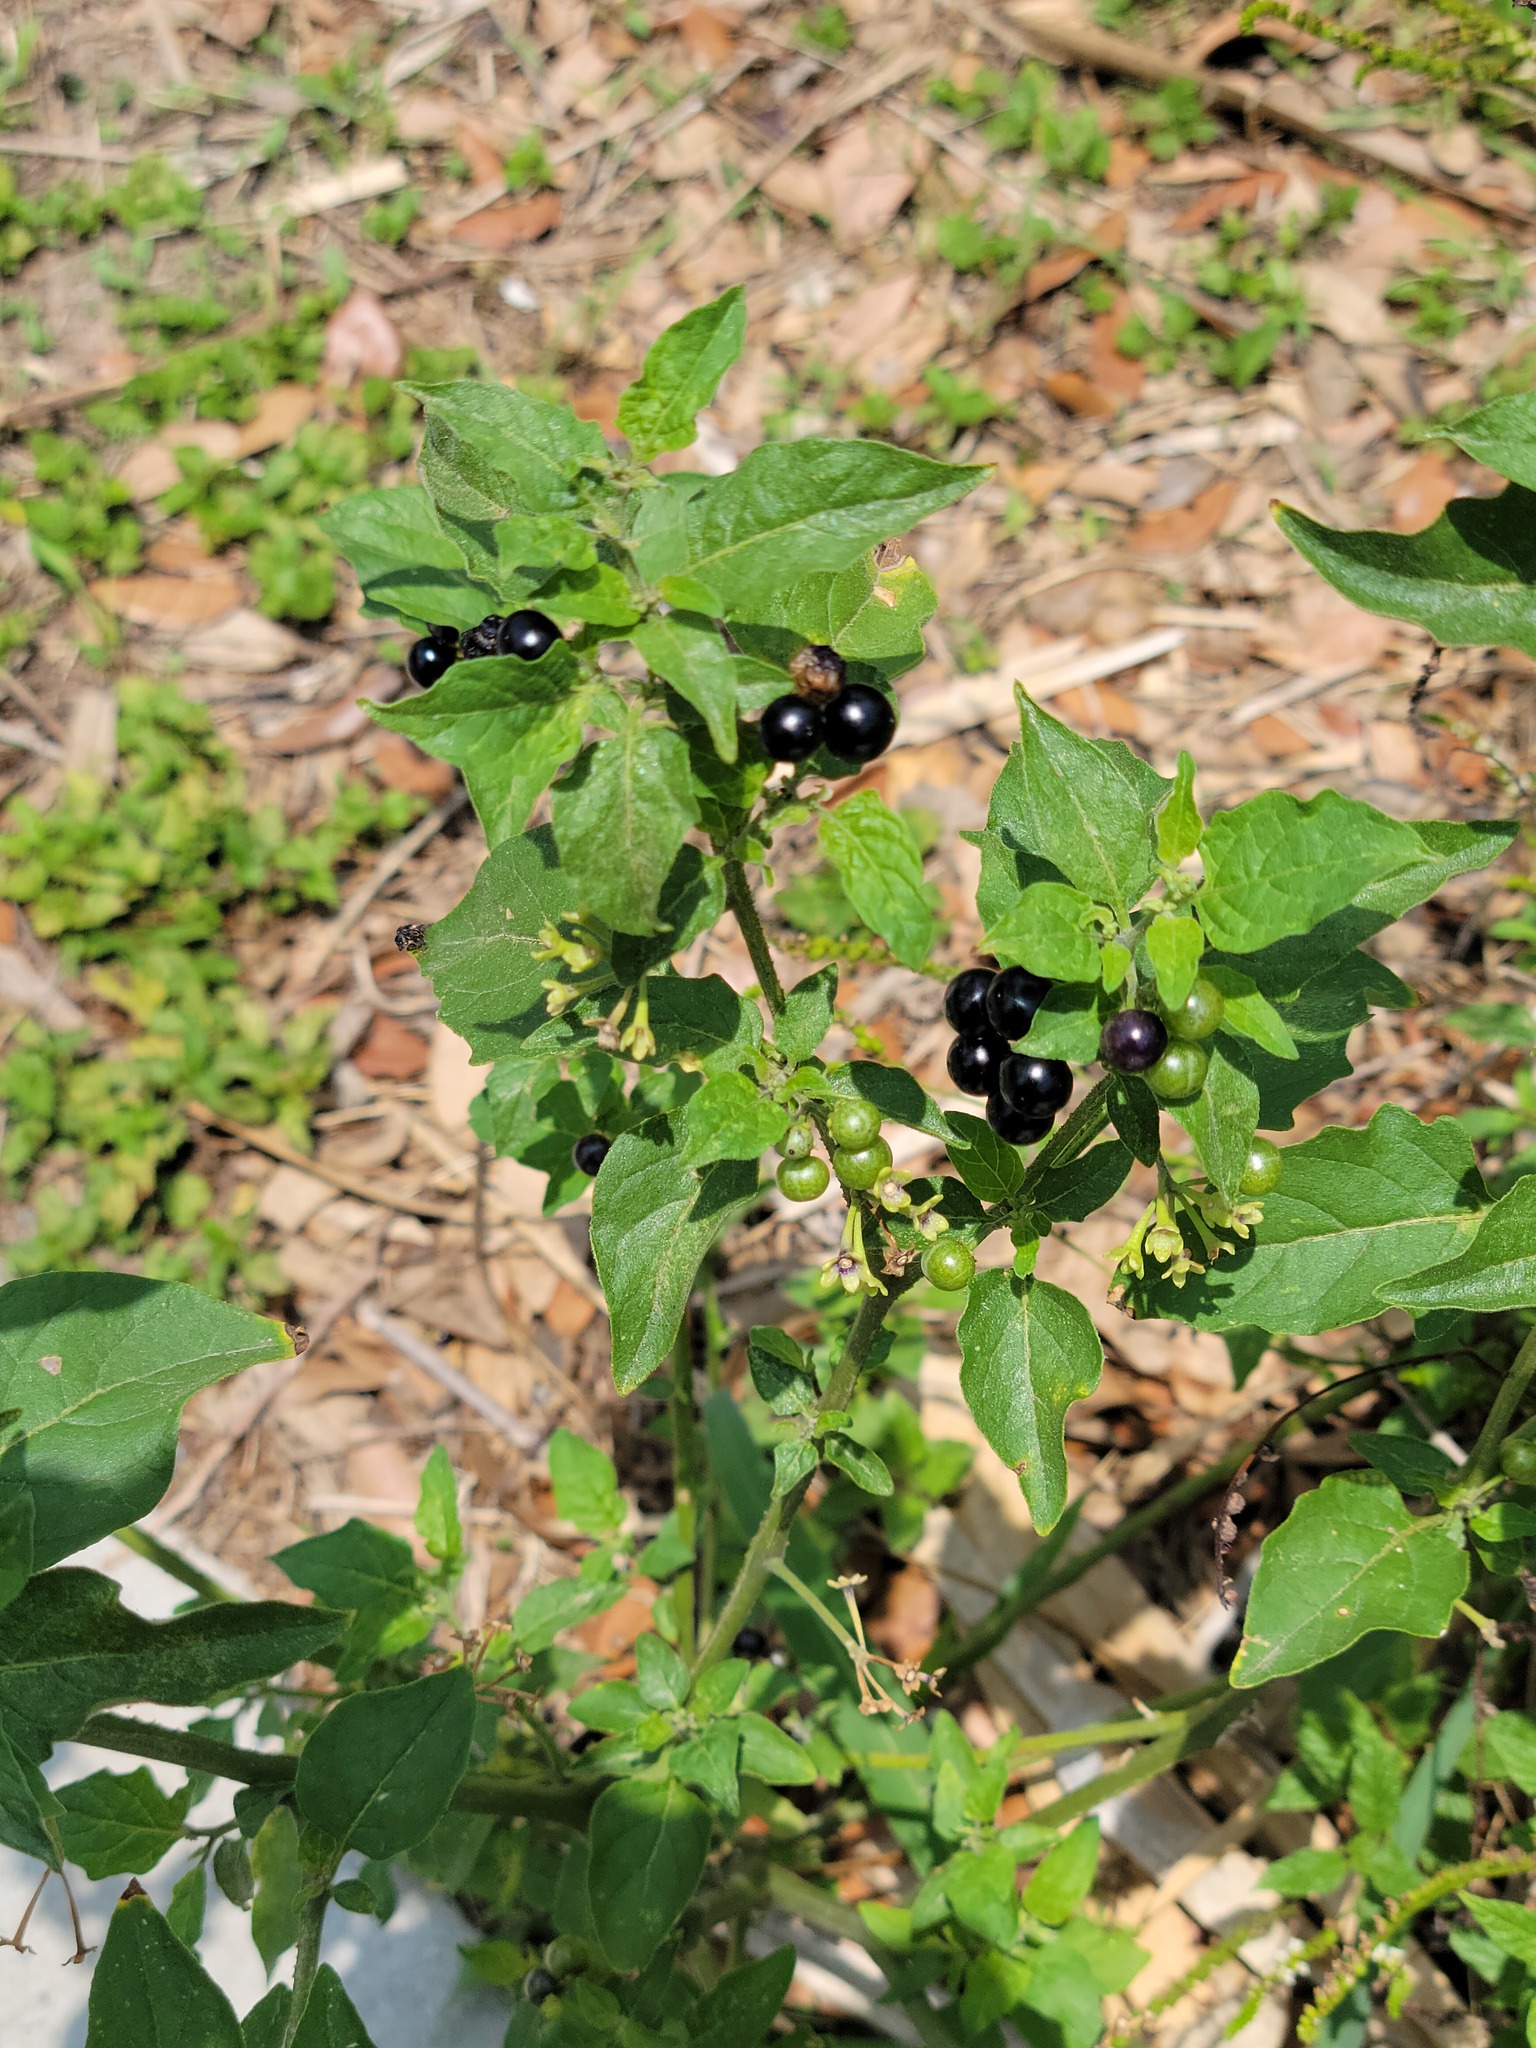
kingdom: Plantae
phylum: Tracheophyta
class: Magnoliopsida
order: Solanales
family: Solanaceae
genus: Solanum
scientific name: Solanum americanum
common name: American black nightshade
